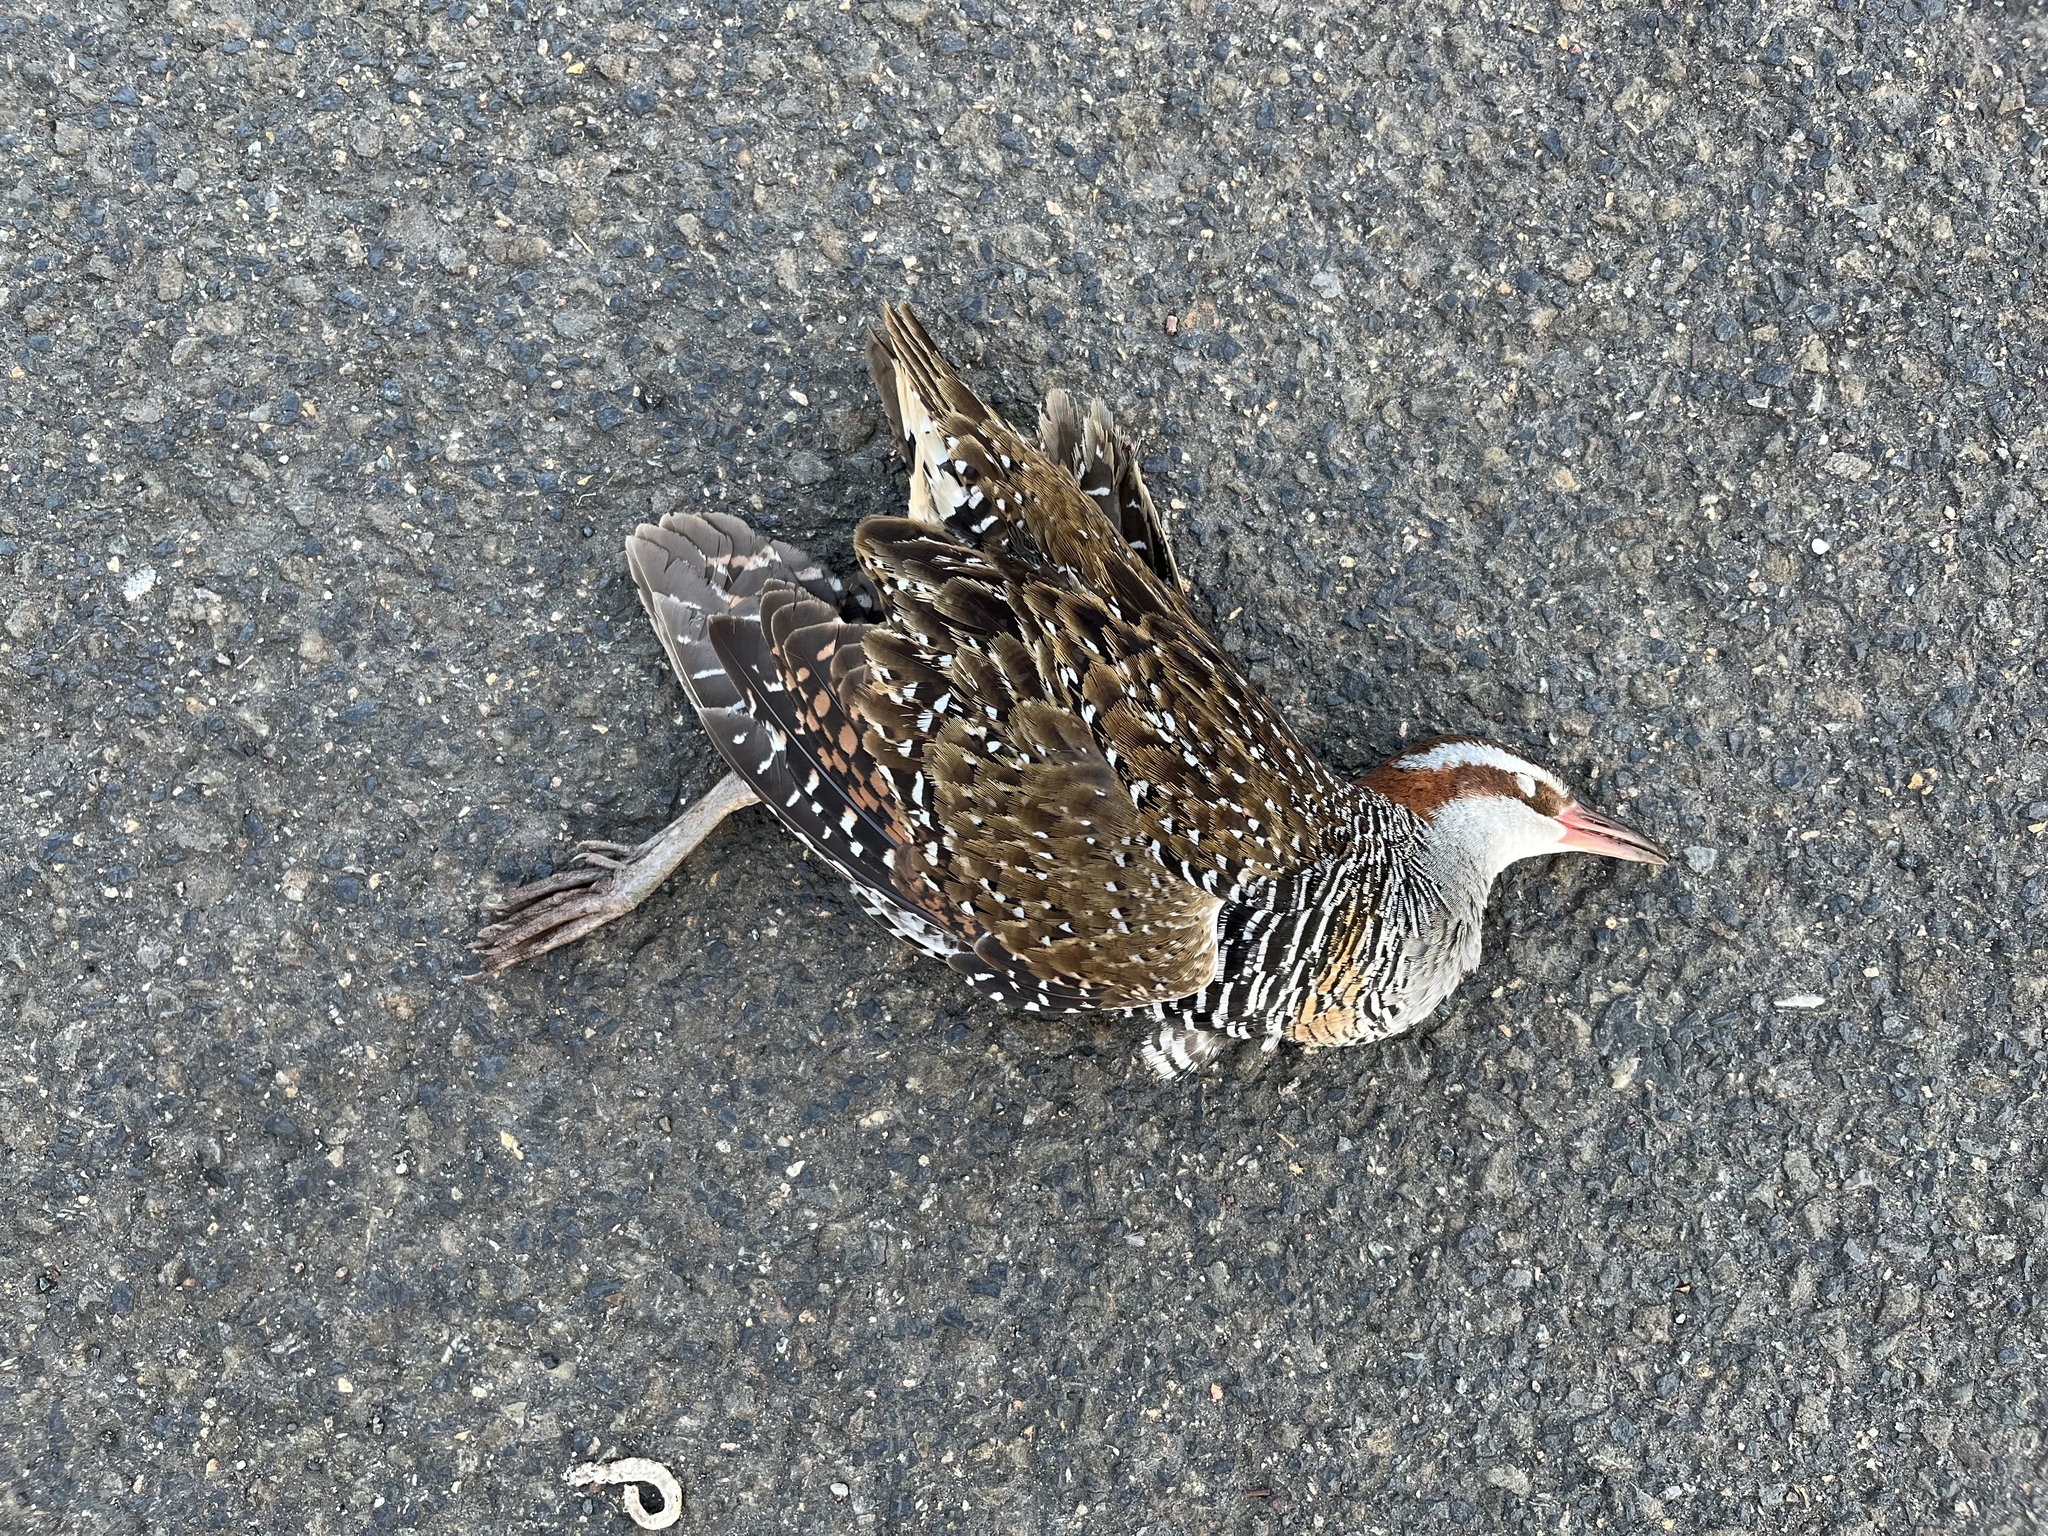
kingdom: Animalia
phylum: Chordata
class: Aves
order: Gruiformes
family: Rallidae
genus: Gallirallus
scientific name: Gallirallus philippensis
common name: Buff-banded rail
